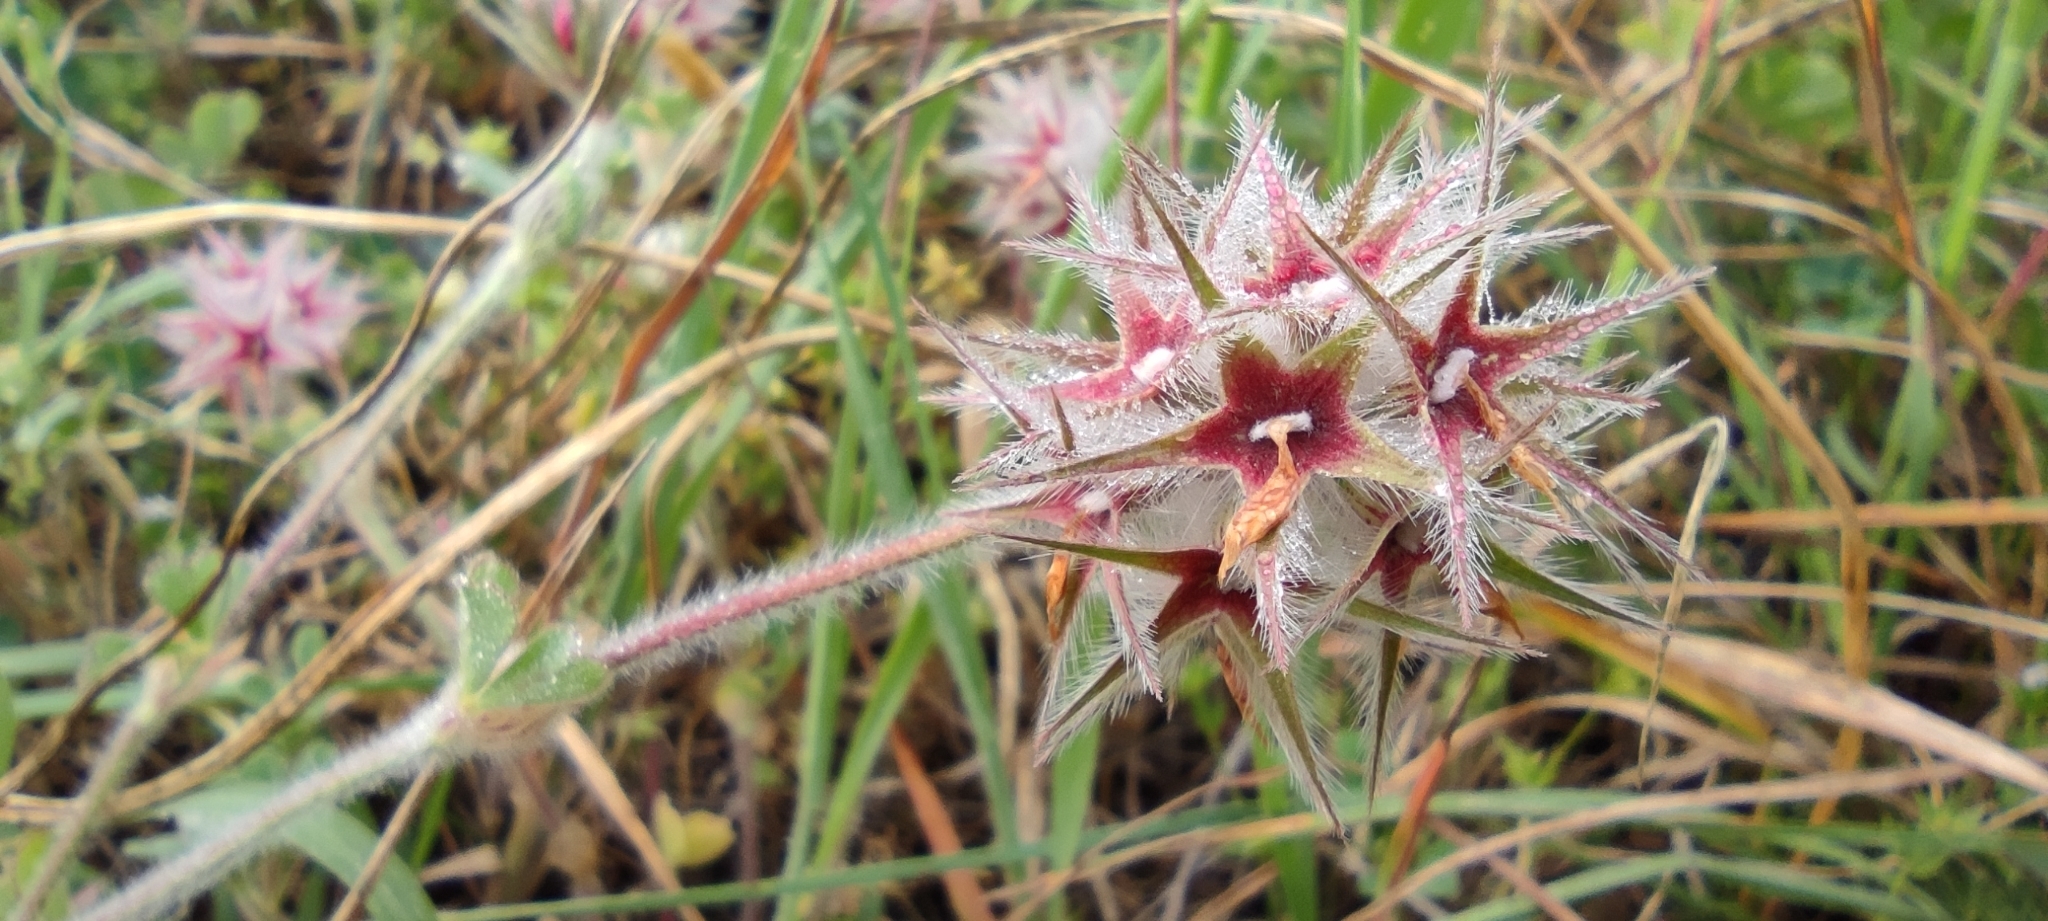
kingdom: Plantae
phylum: Tracheophyta
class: Magnoliopsida
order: Fabales
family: Fabaceae
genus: Trifolium
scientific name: Trifolium stellatum
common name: Starry clover
